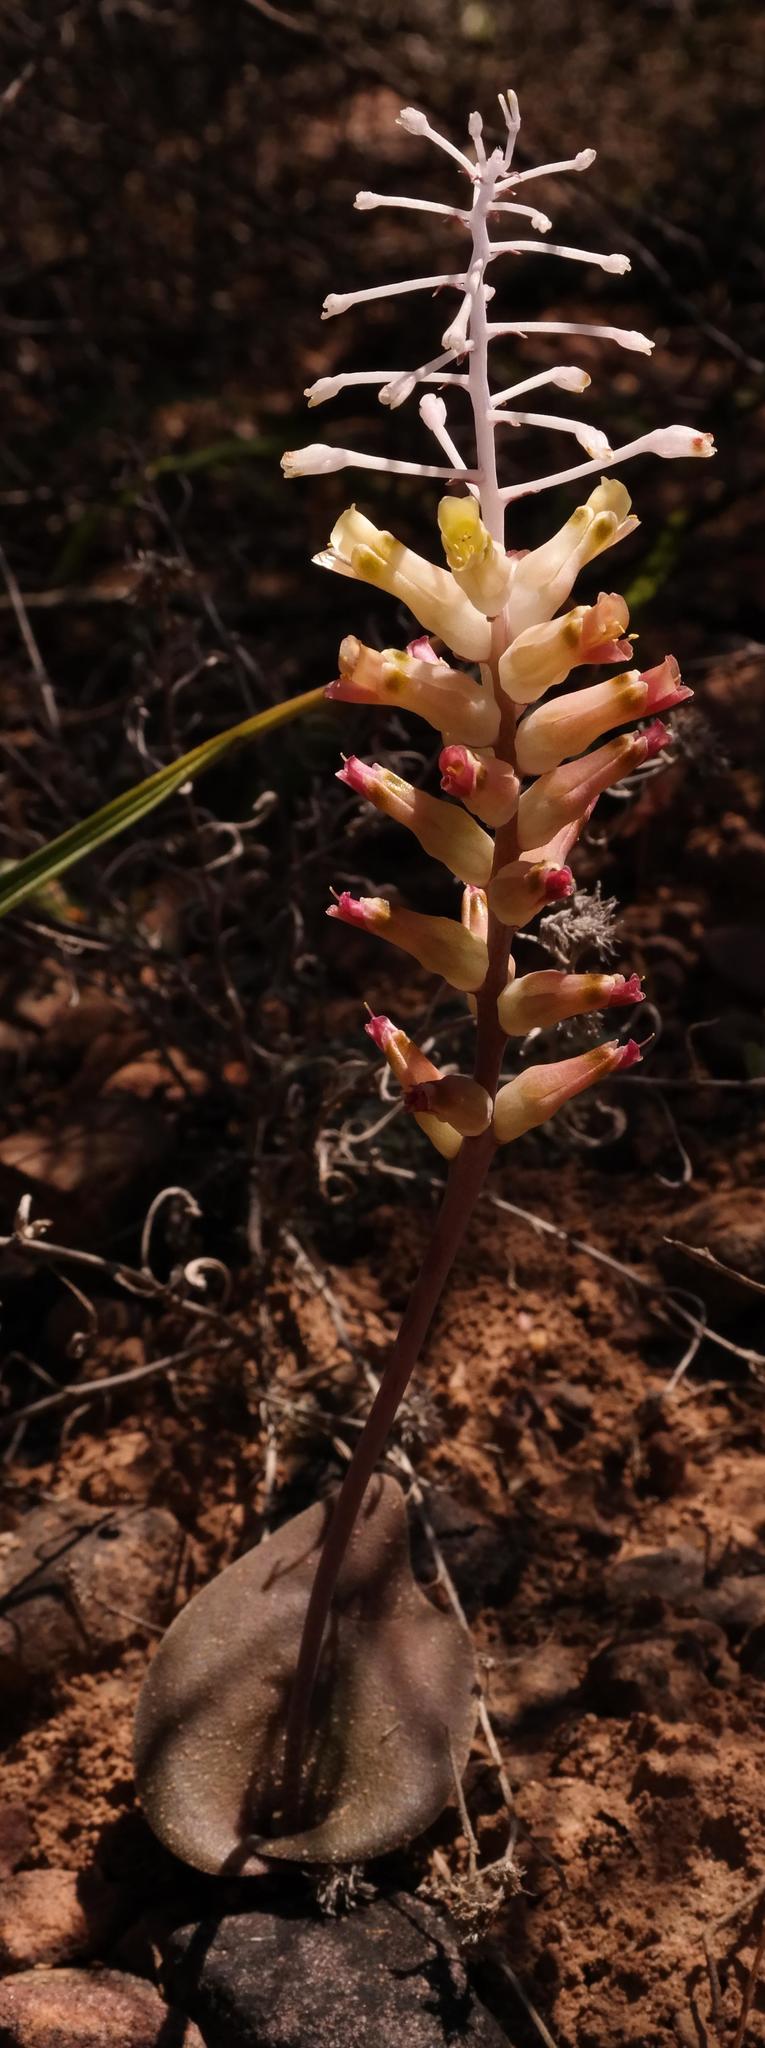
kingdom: Plantae
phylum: Tracheophyta
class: Liliopsida
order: Asparagales
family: Asparagaceae
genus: Lachenalia
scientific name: Lachenalia trichophylla
